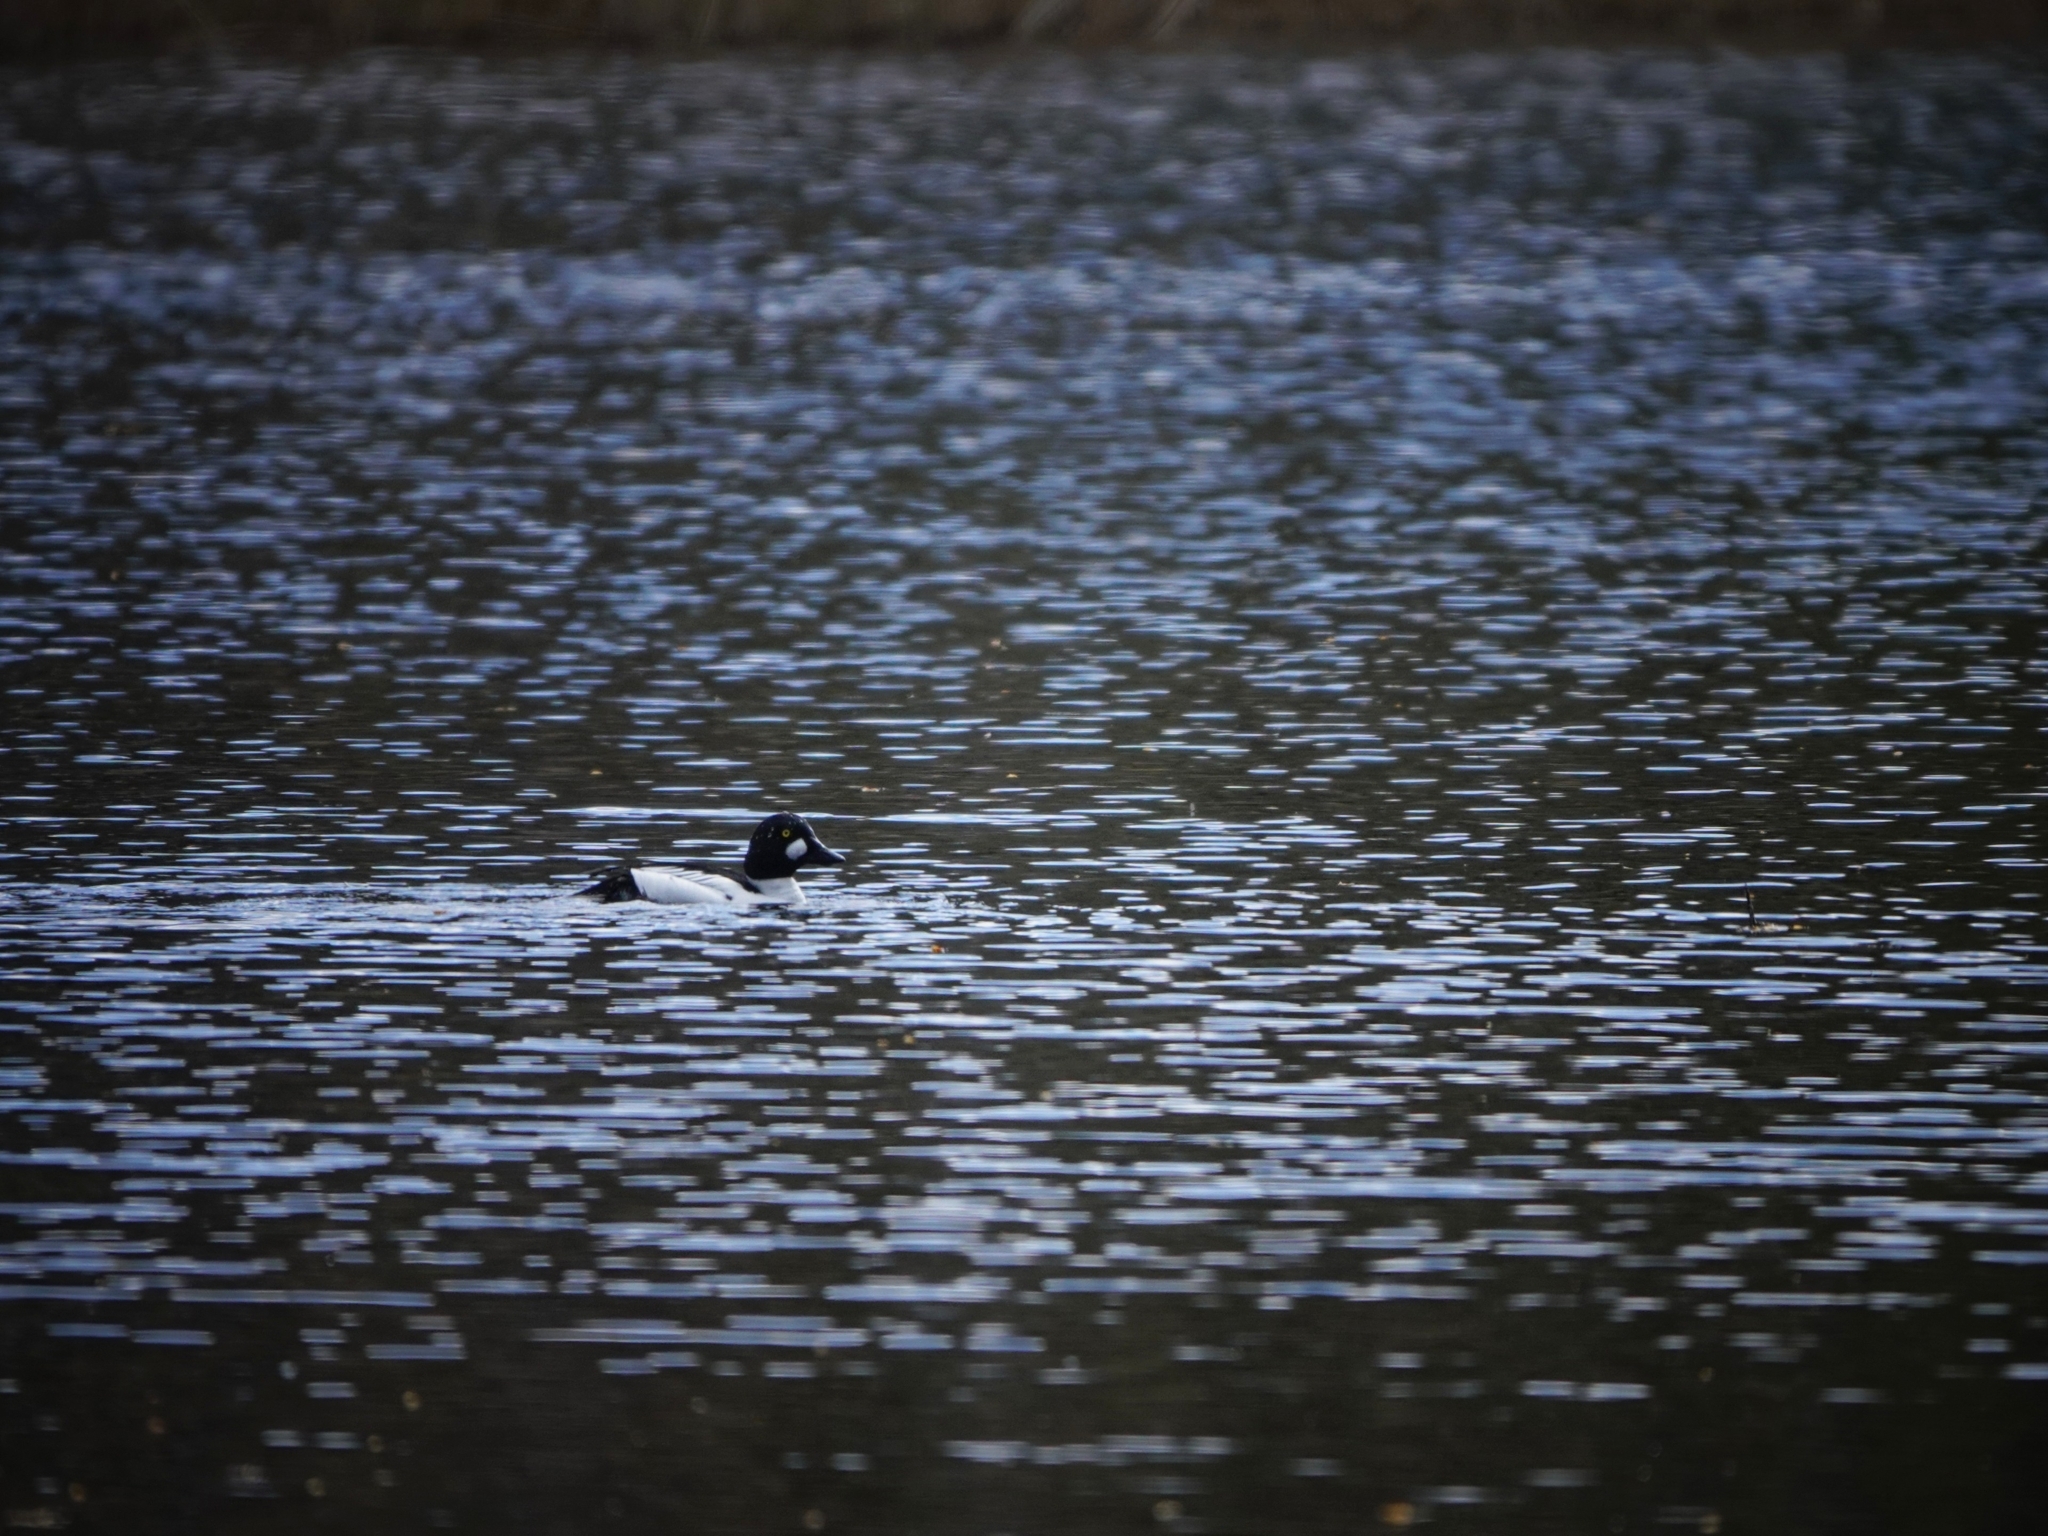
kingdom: Animalia
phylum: Chordata
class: Aves
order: Anseriformes
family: Anatidae
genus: Bucephala
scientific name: Bucephala clangula
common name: Common goldeneye
